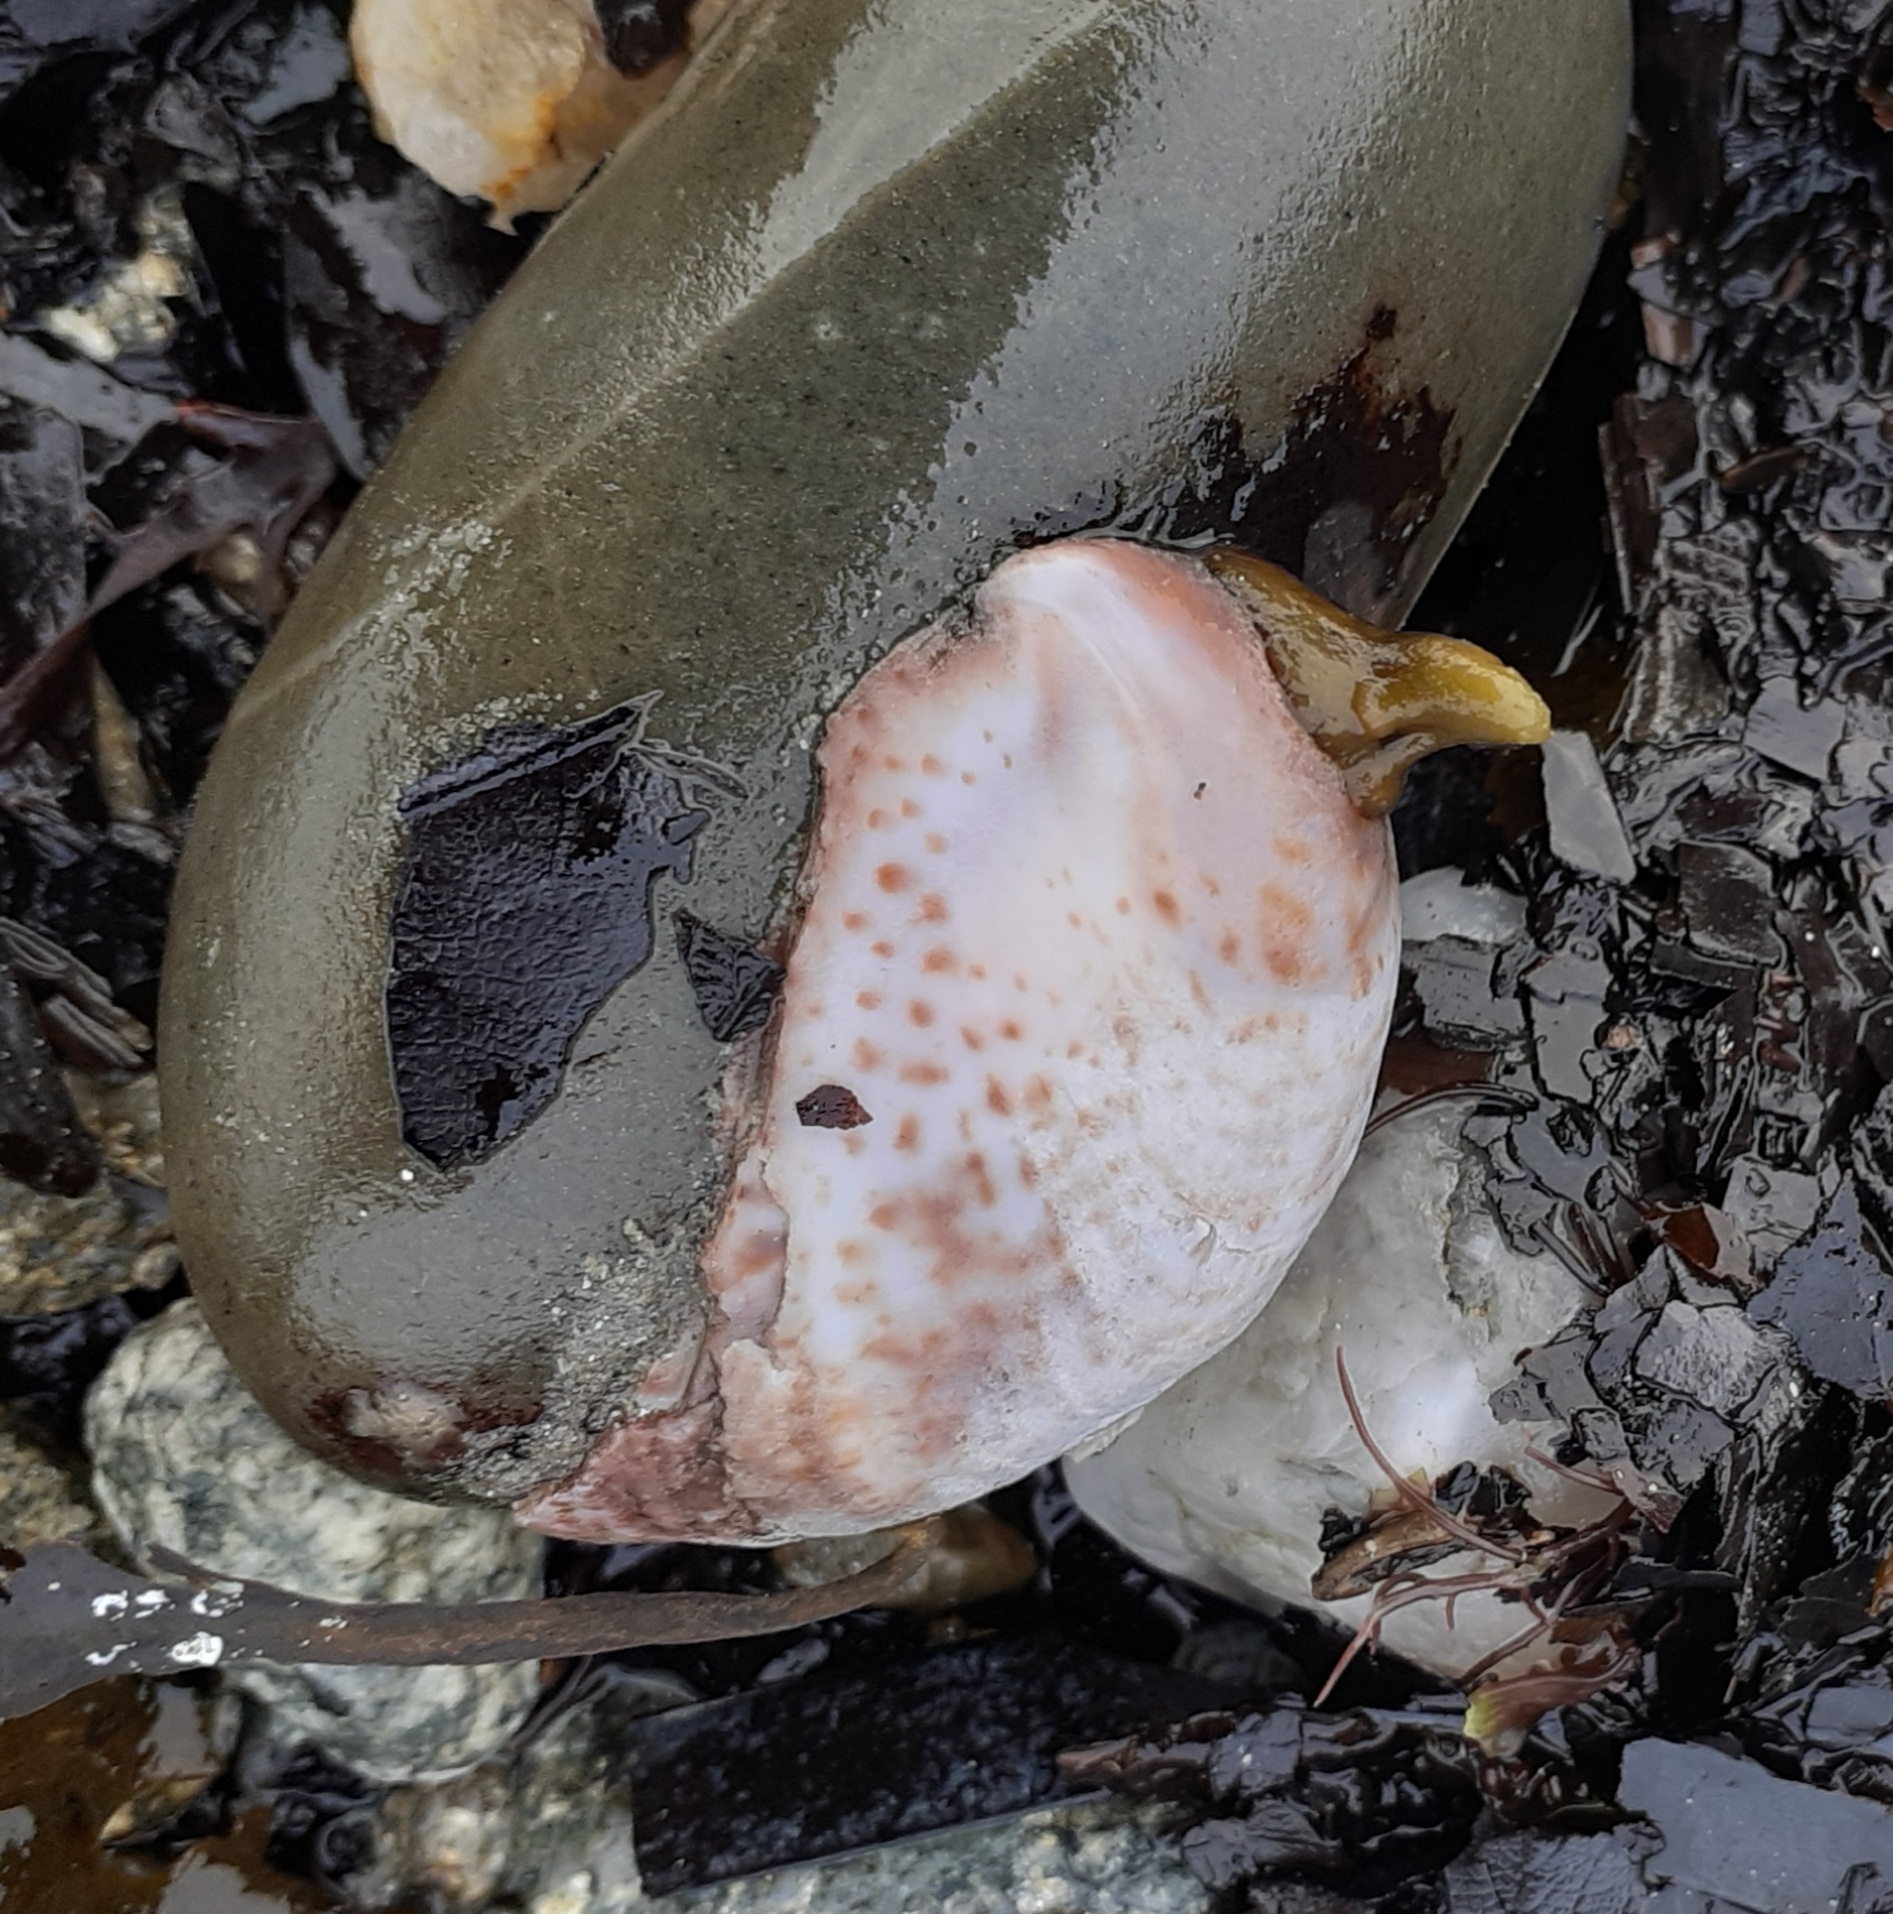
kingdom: Animalia
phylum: Mollusca
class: Gastropoda
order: Littorinimorpha
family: Calyptraeidae
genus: Crepidula
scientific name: Crepidula fornicata
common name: Slipper limpet
